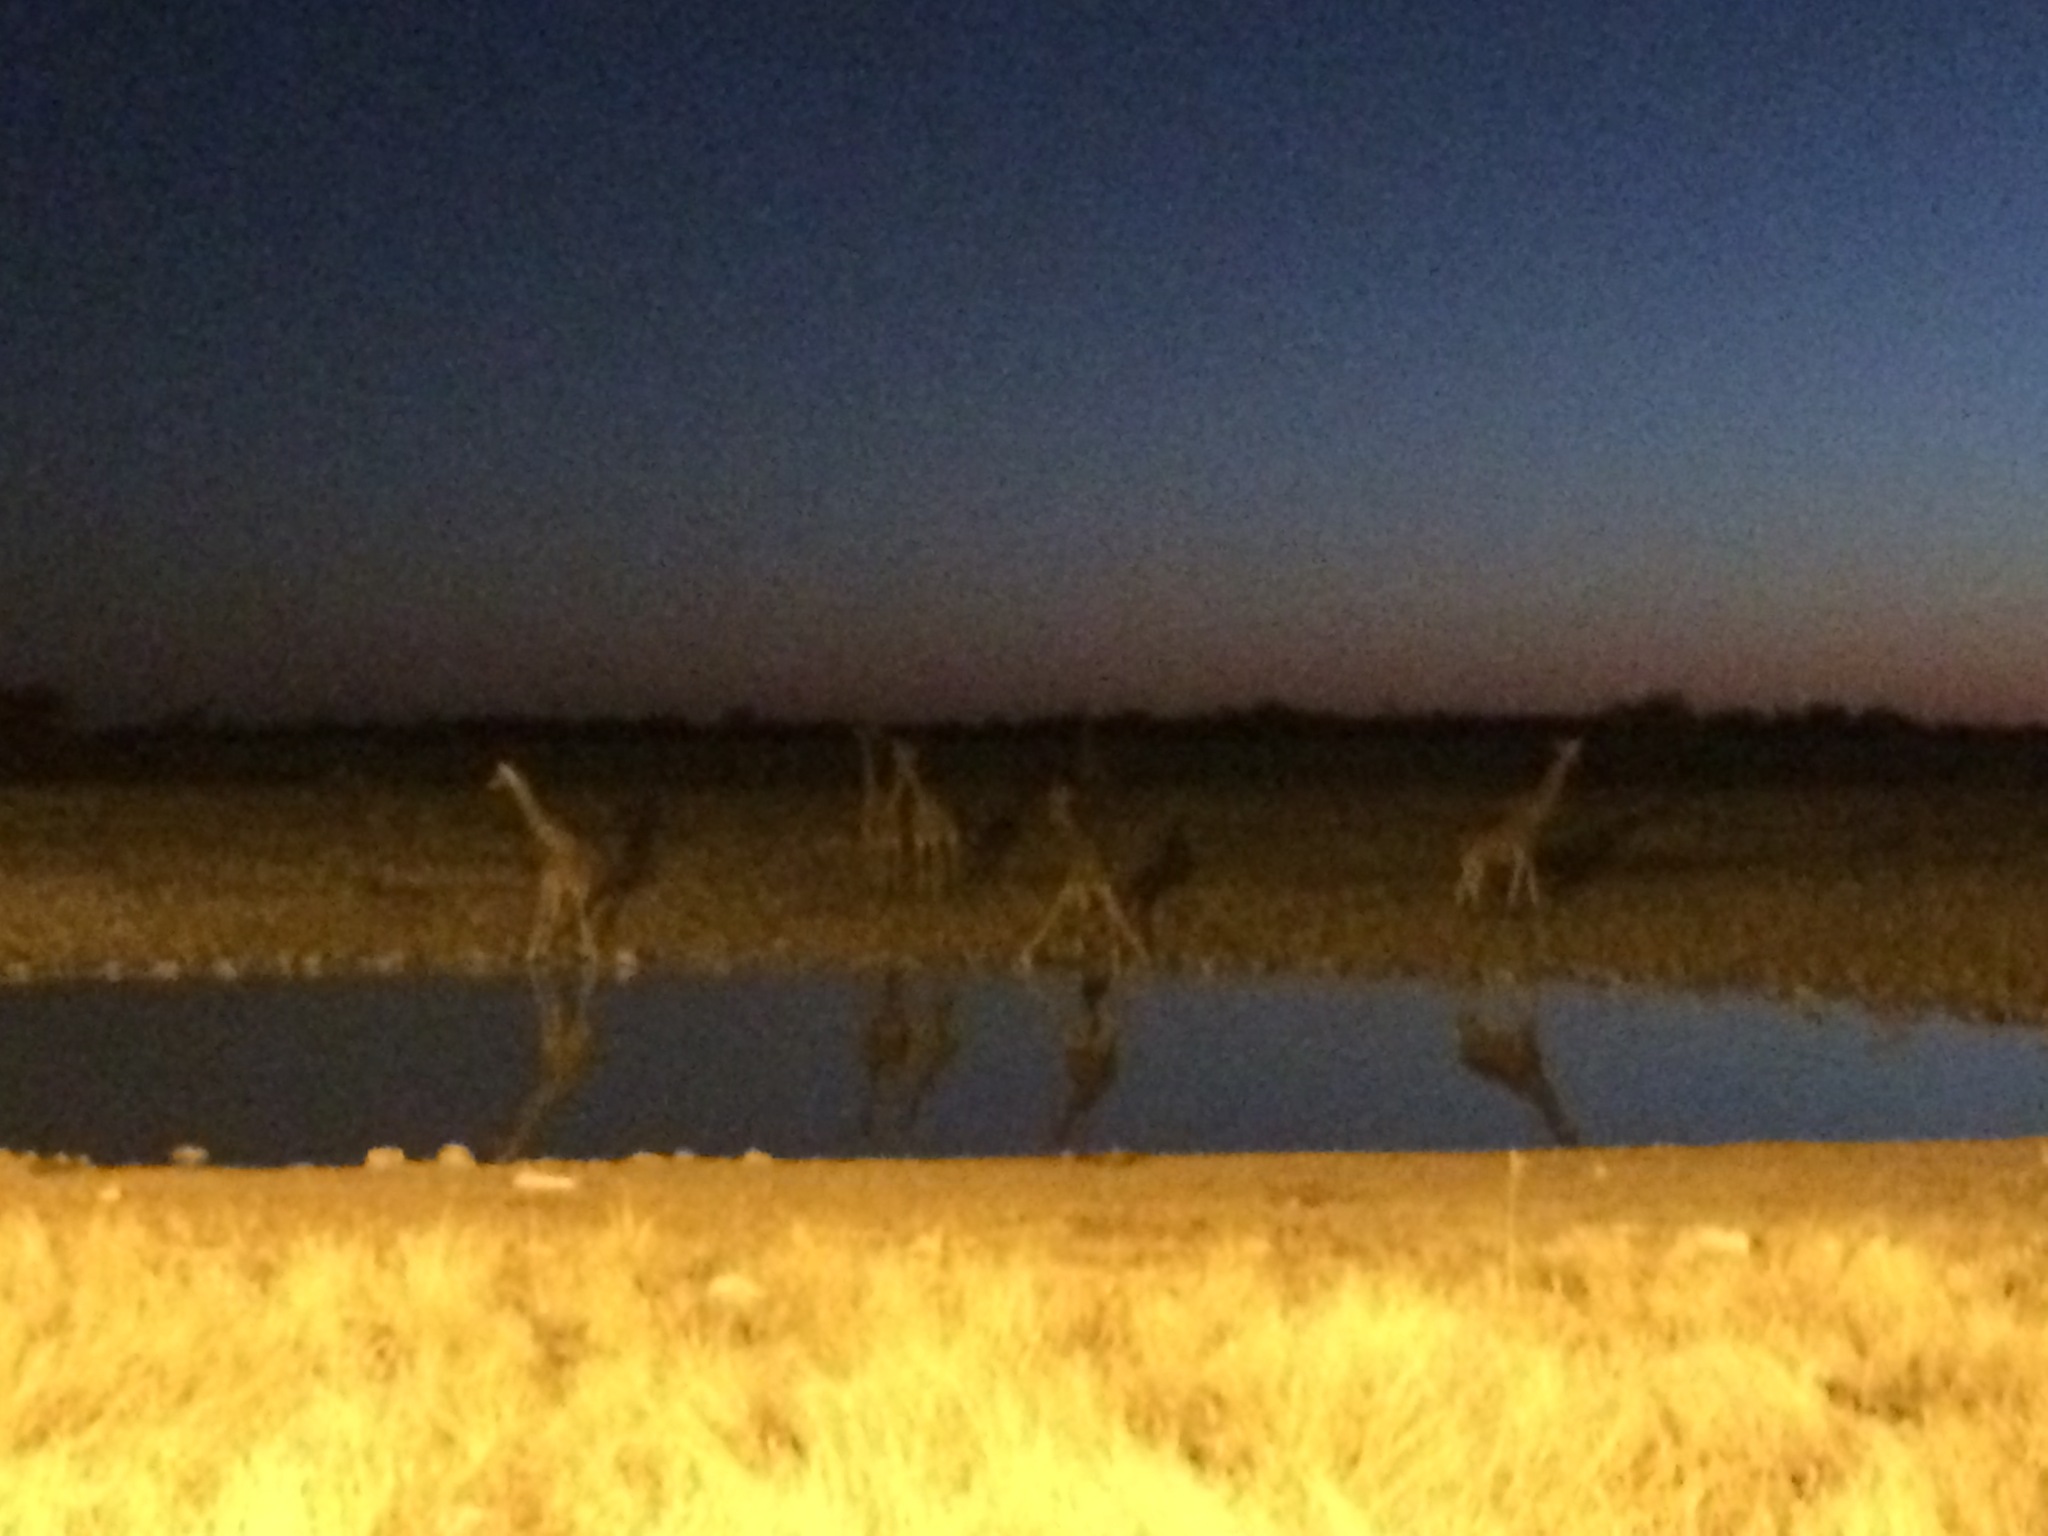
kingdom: Animalia
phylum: Chordata
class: Mammalia
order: Artiodactyla
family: Giraffidae
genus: Giraffa
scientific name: Giraffa giraffa
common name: Southern giraffe
